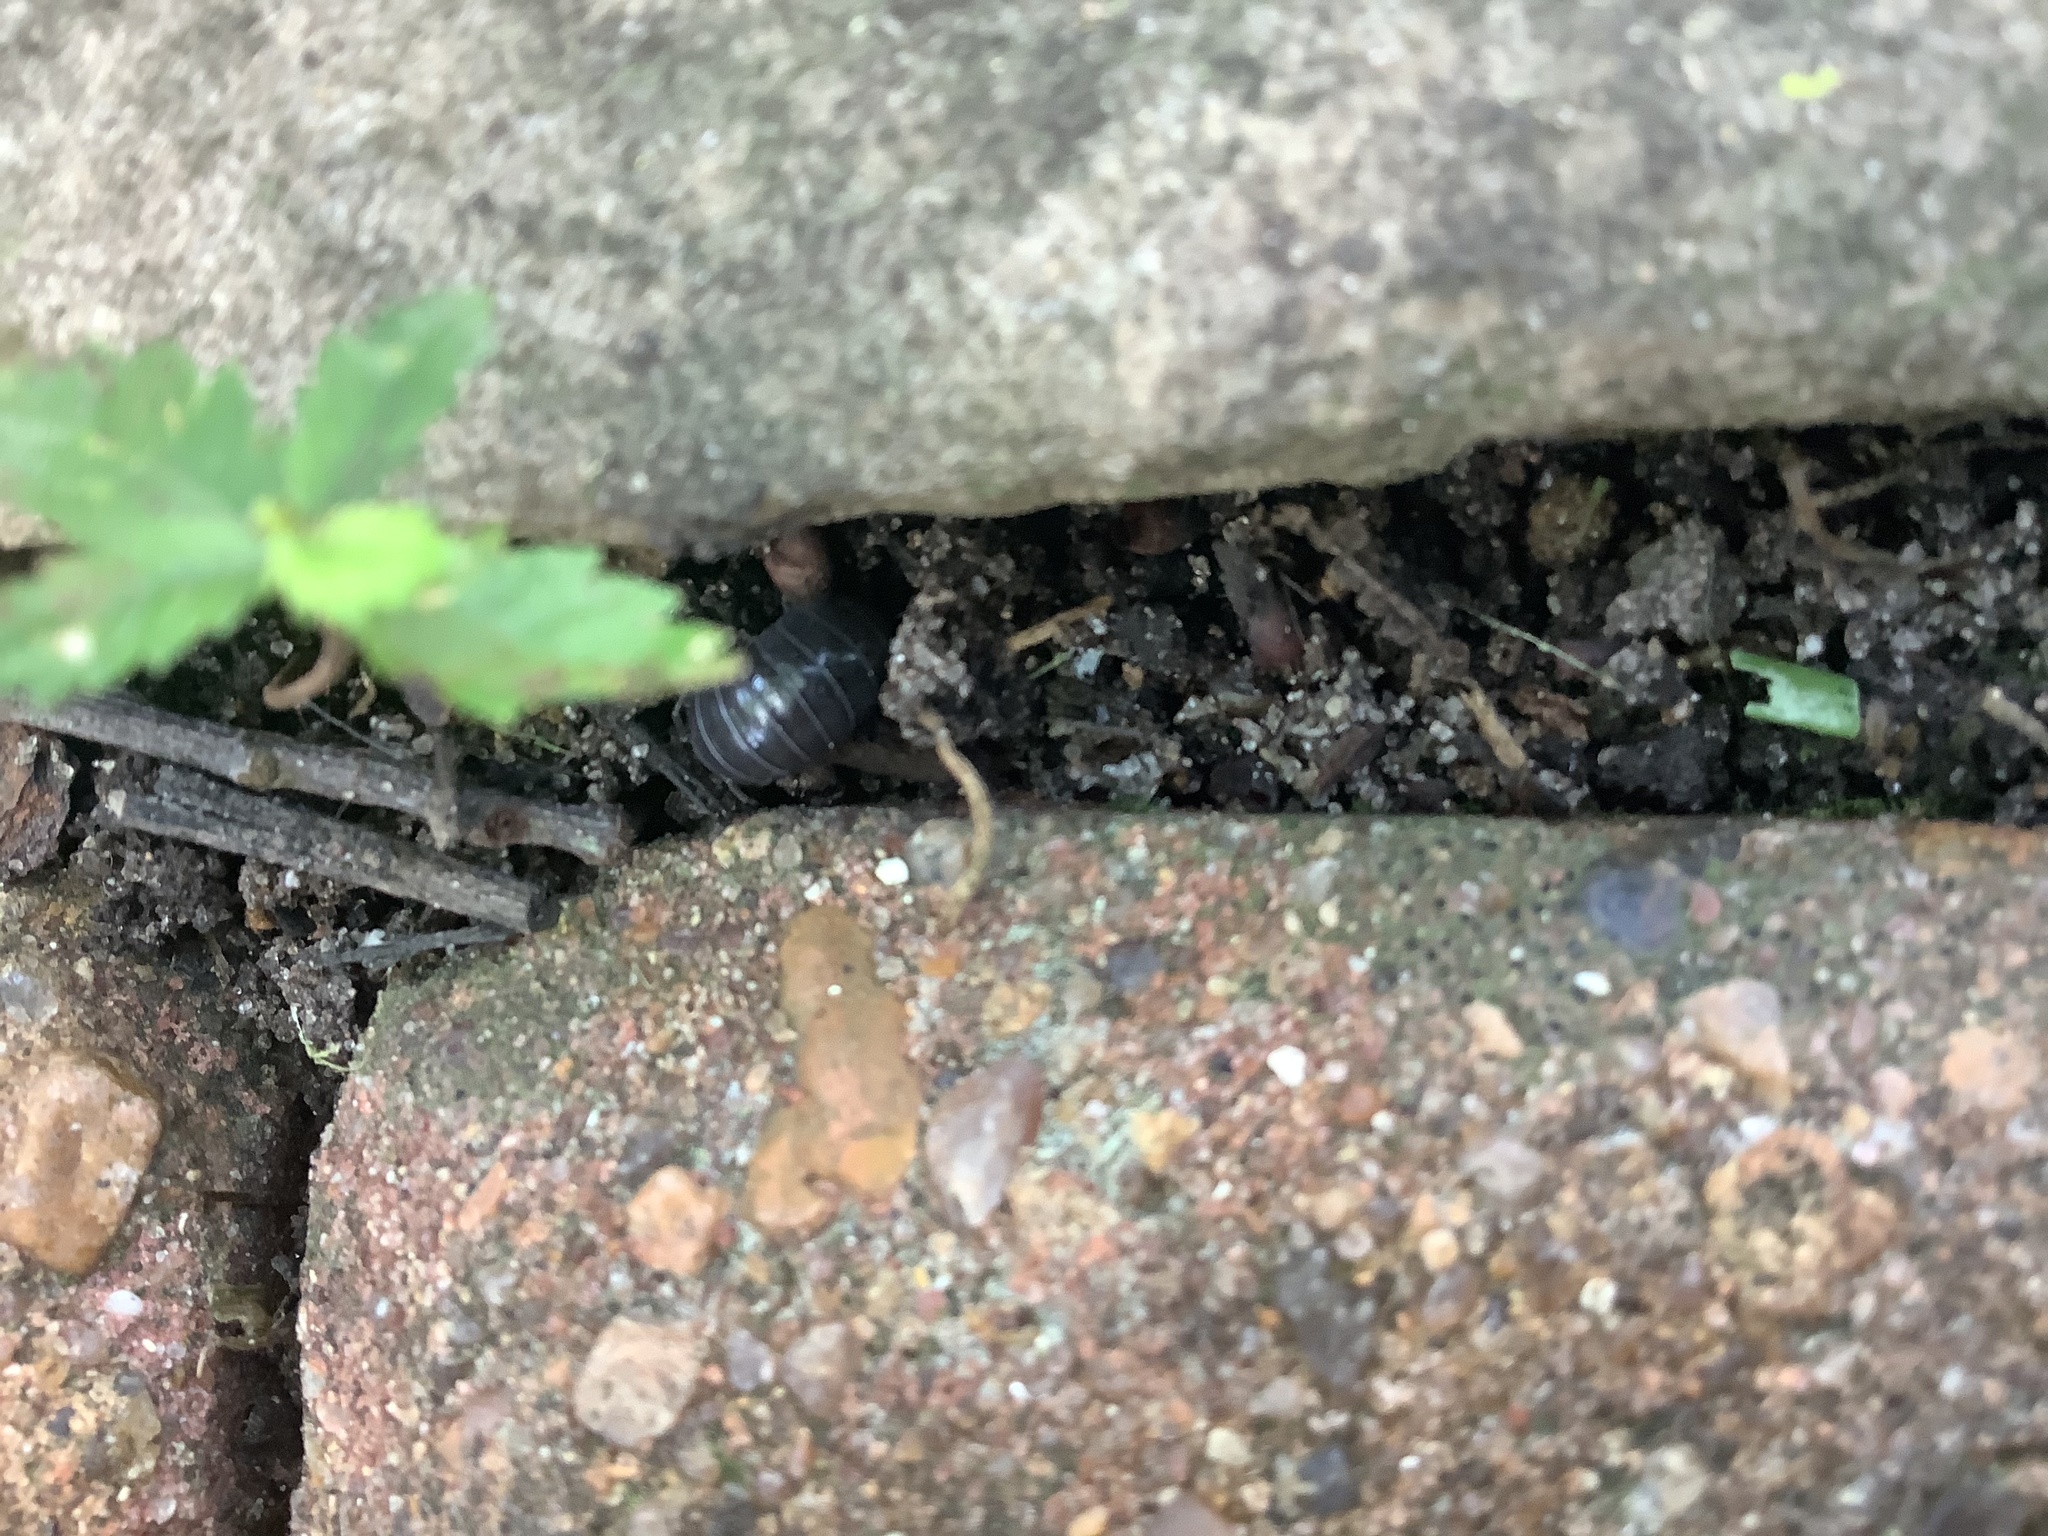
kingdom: Animalia
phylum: Arthropoda
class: Malacostraca
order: Isopoda
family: Armadillidiidae
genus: Armadillidium
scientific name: Armadillidium vulgare
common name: Common pill woodlouse
